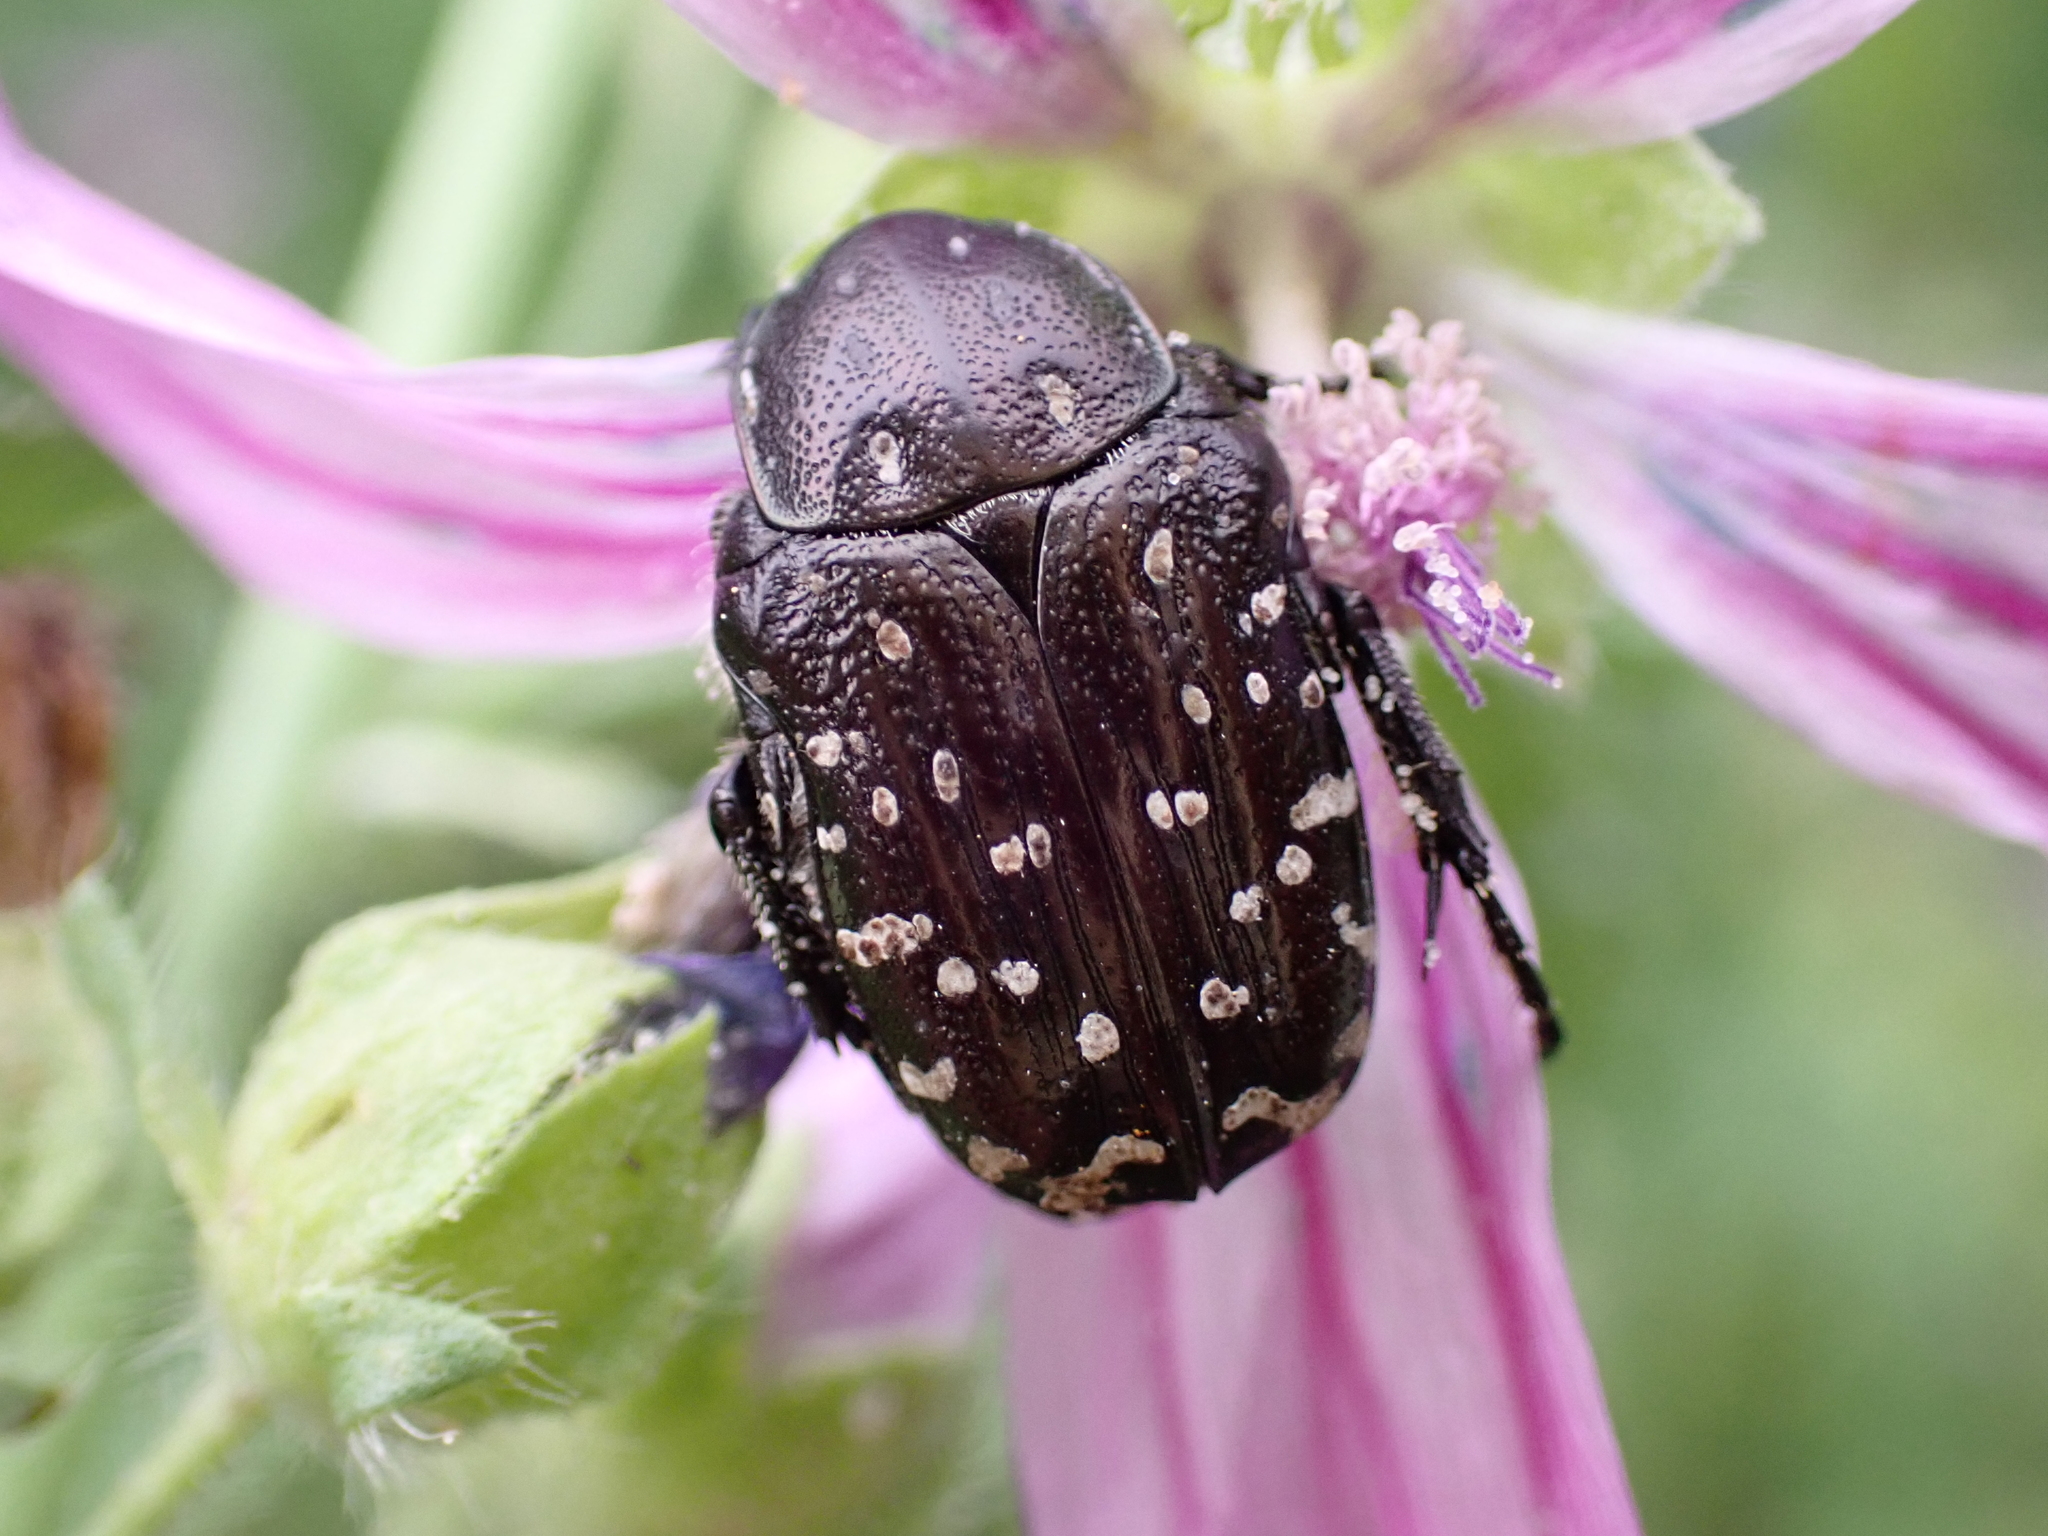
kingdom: Animalia
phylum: Arthropoda
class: Insecta
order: Coleoptera
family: Scarabaeidae
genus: Oxythyrea
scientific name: Oxythyrea funesta
